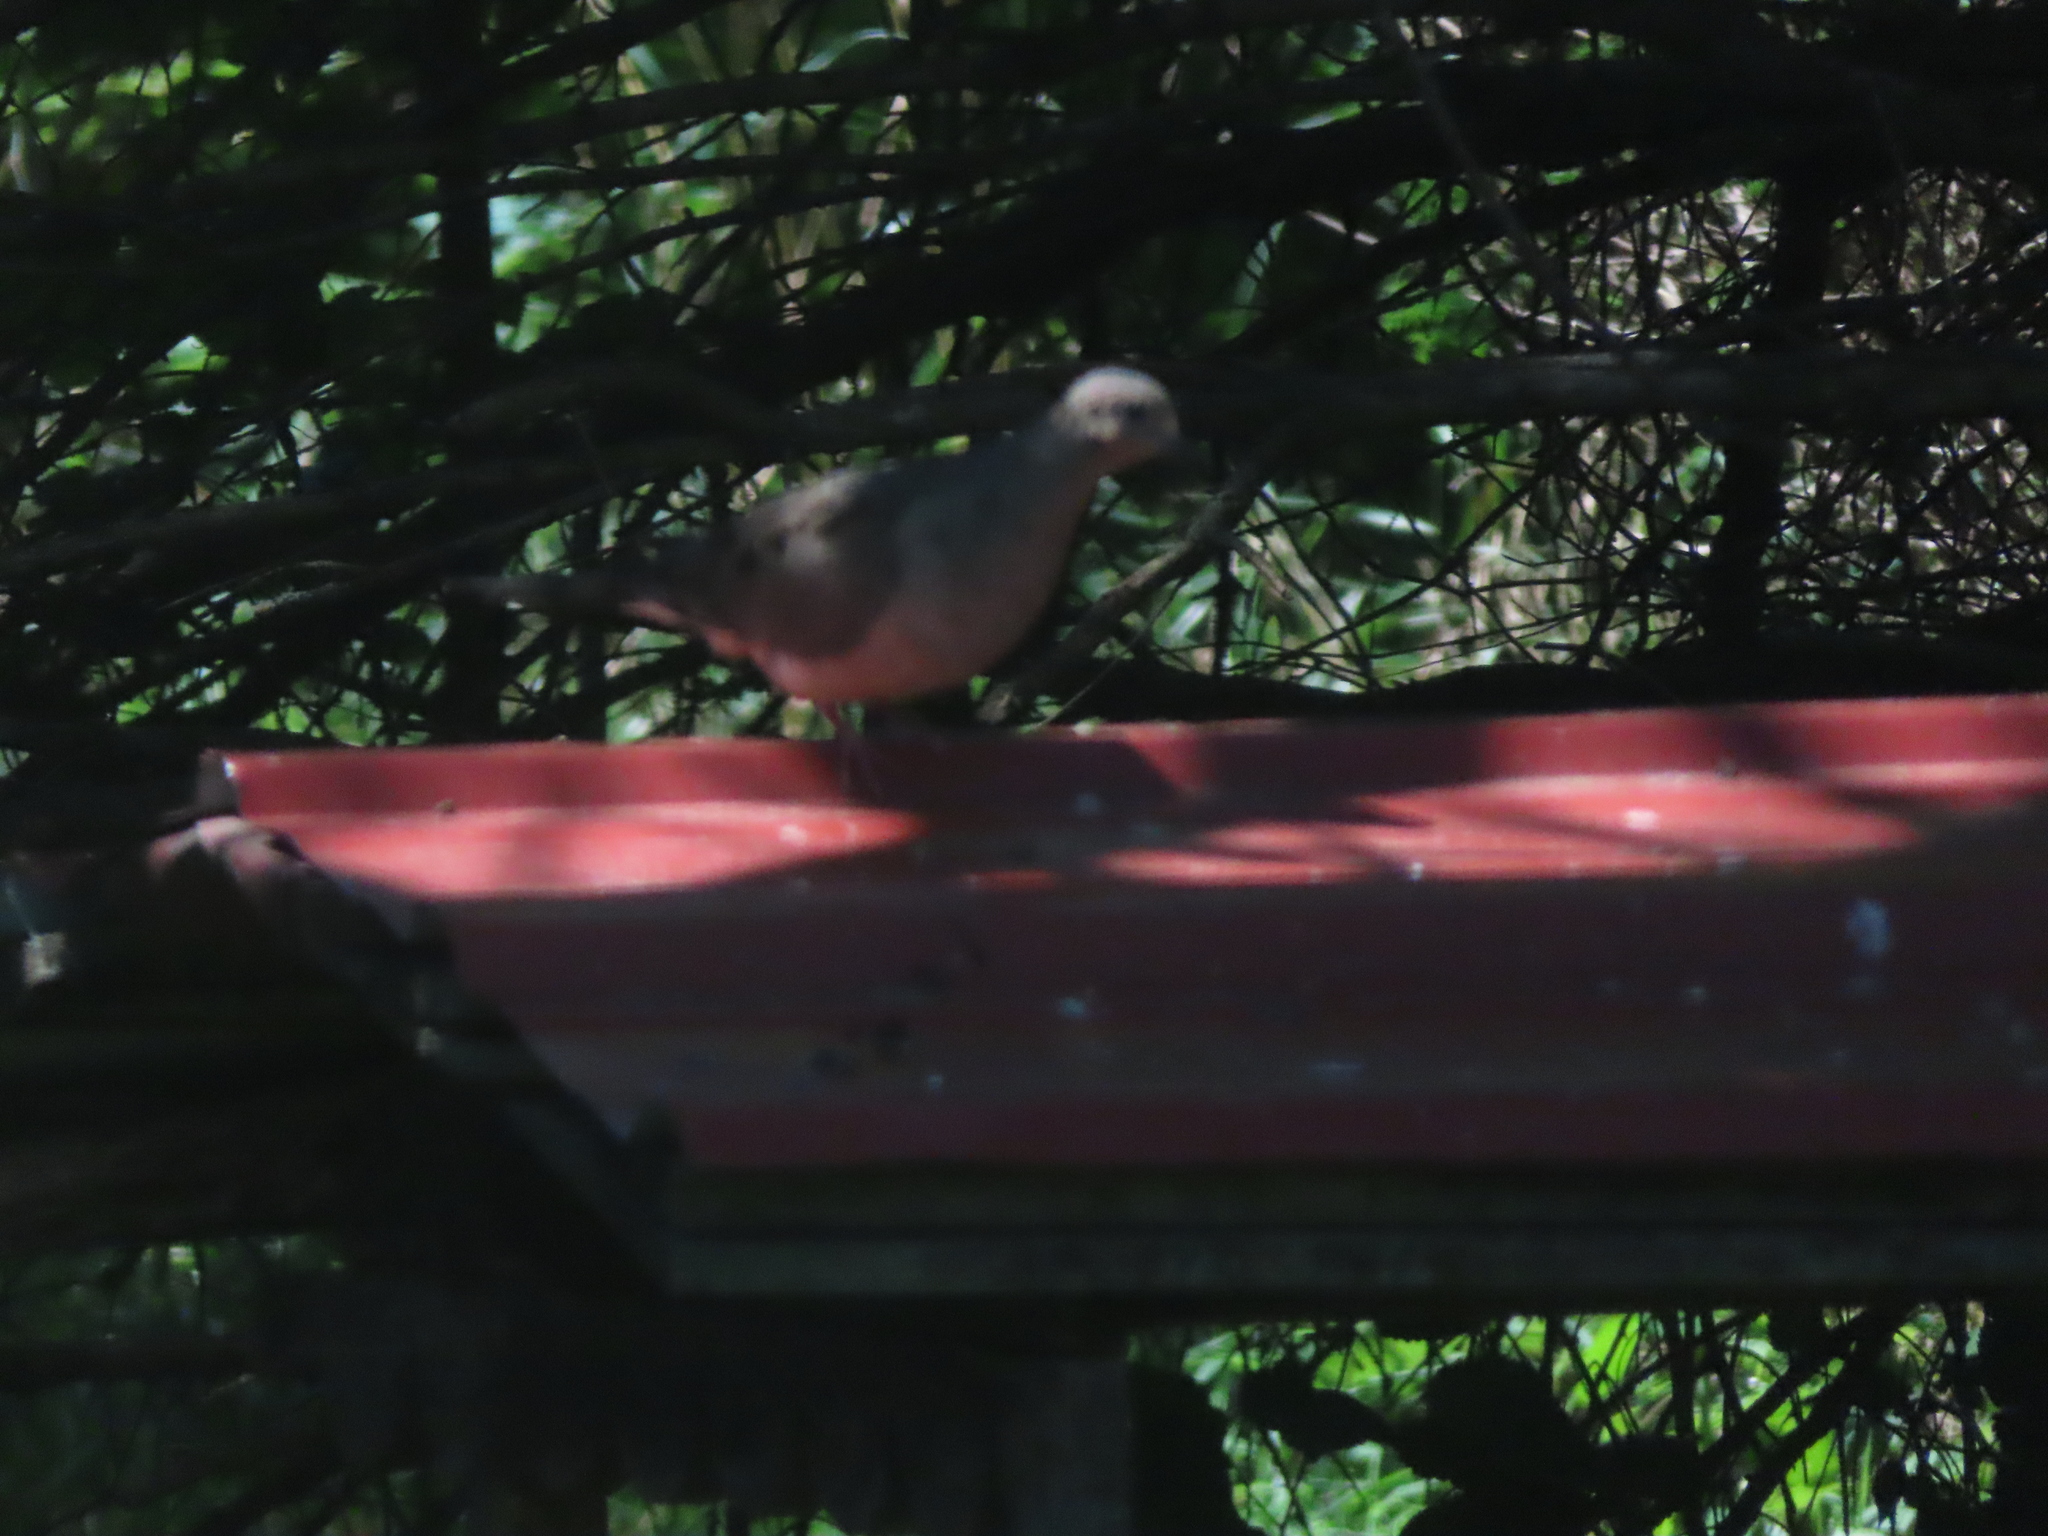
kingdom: Animalia
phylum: Chordata
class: Aves
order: Columbiformes
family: Columbidae
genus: Zenaida
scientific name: Zenaida macroura
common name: Mourning dove
